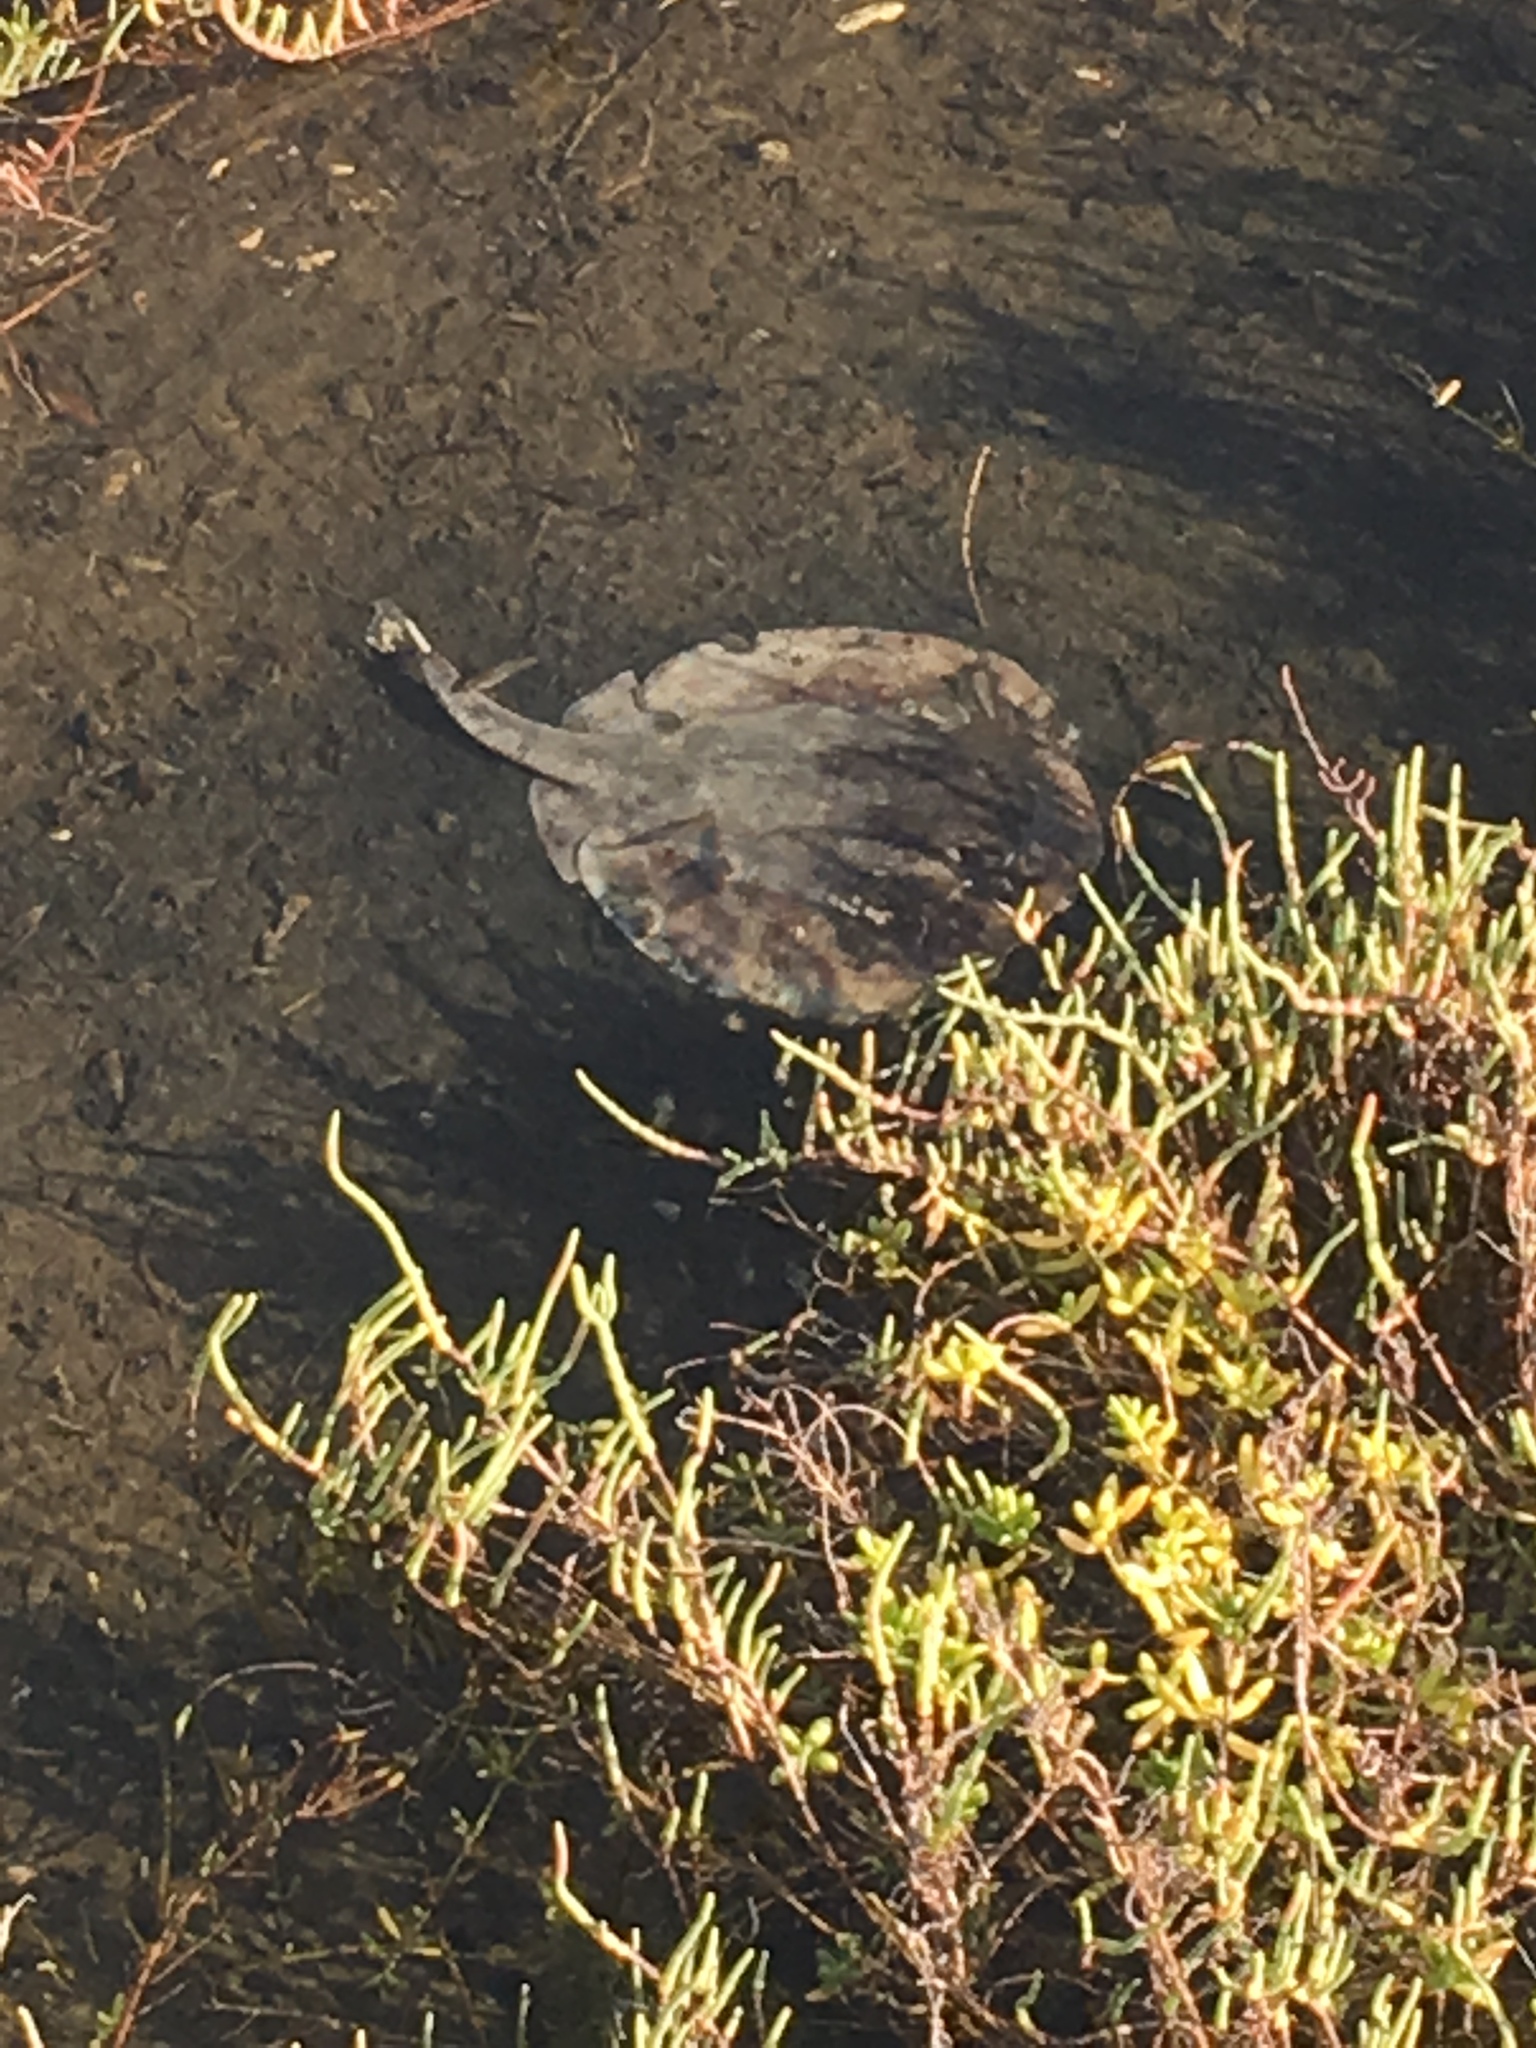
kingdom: Animalia
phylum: Chordata
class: Elasmobranchii
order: Myliobatiformes
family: Urolophidae
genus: Urolophus
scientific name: Urolophus halleri
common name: Round stingray
